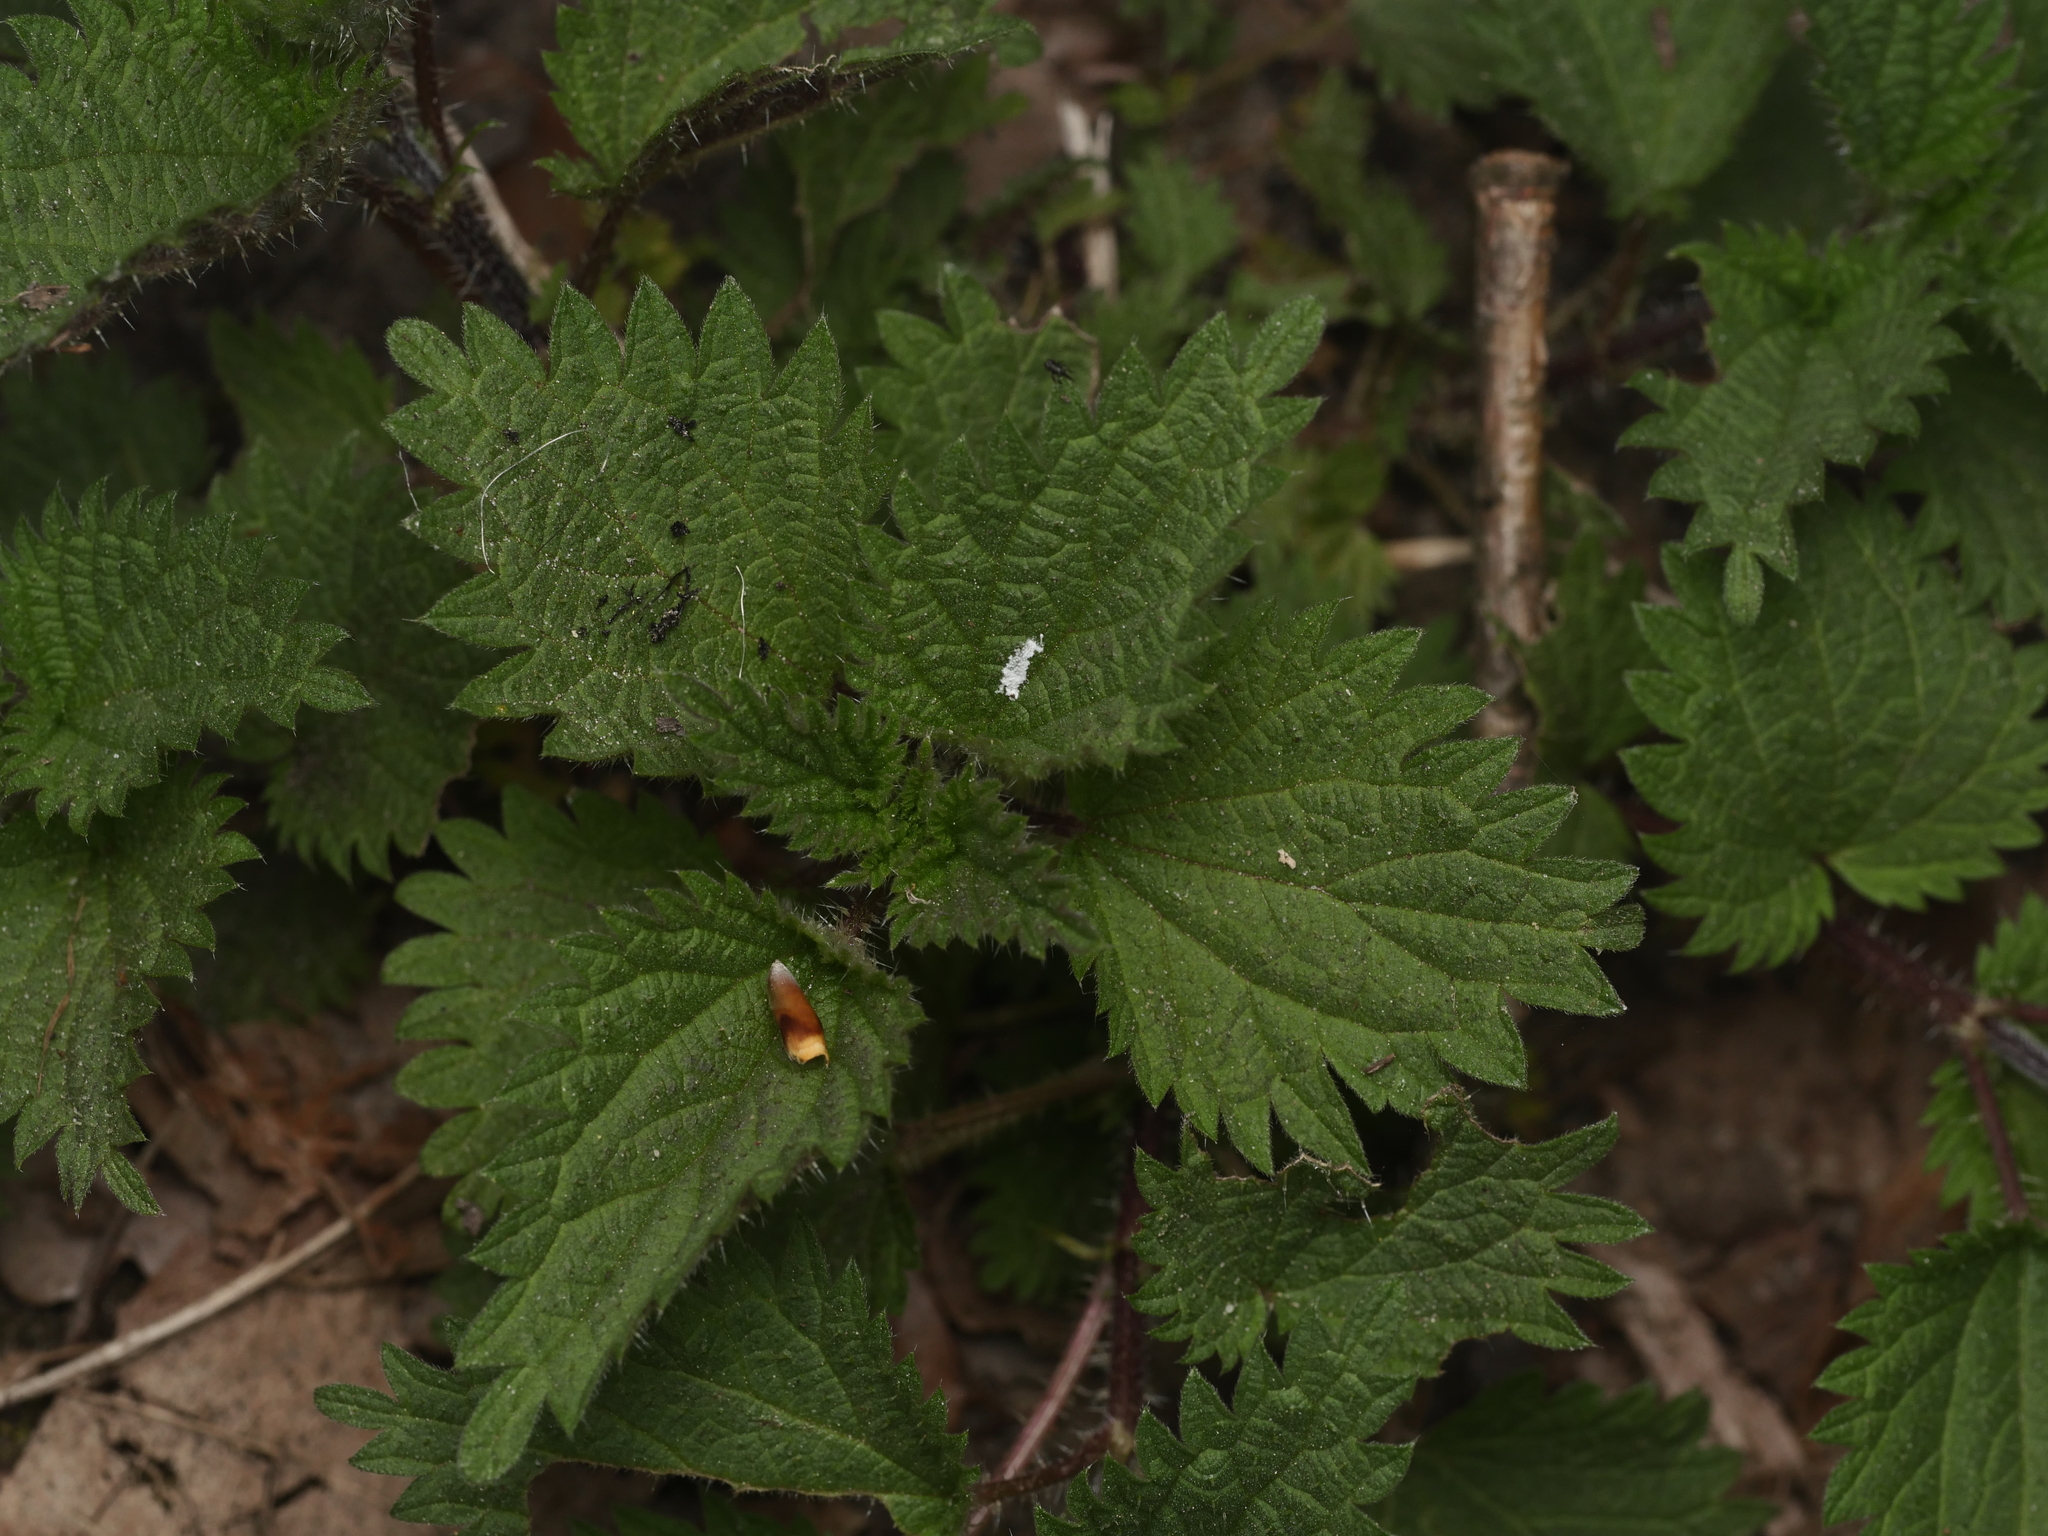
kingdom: Plantae
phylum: Tracheophyta
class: Magnoliopsida
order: Rosales
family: Urticaceae
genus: Urtica
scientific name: Urtica dioica
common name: Common nettle
